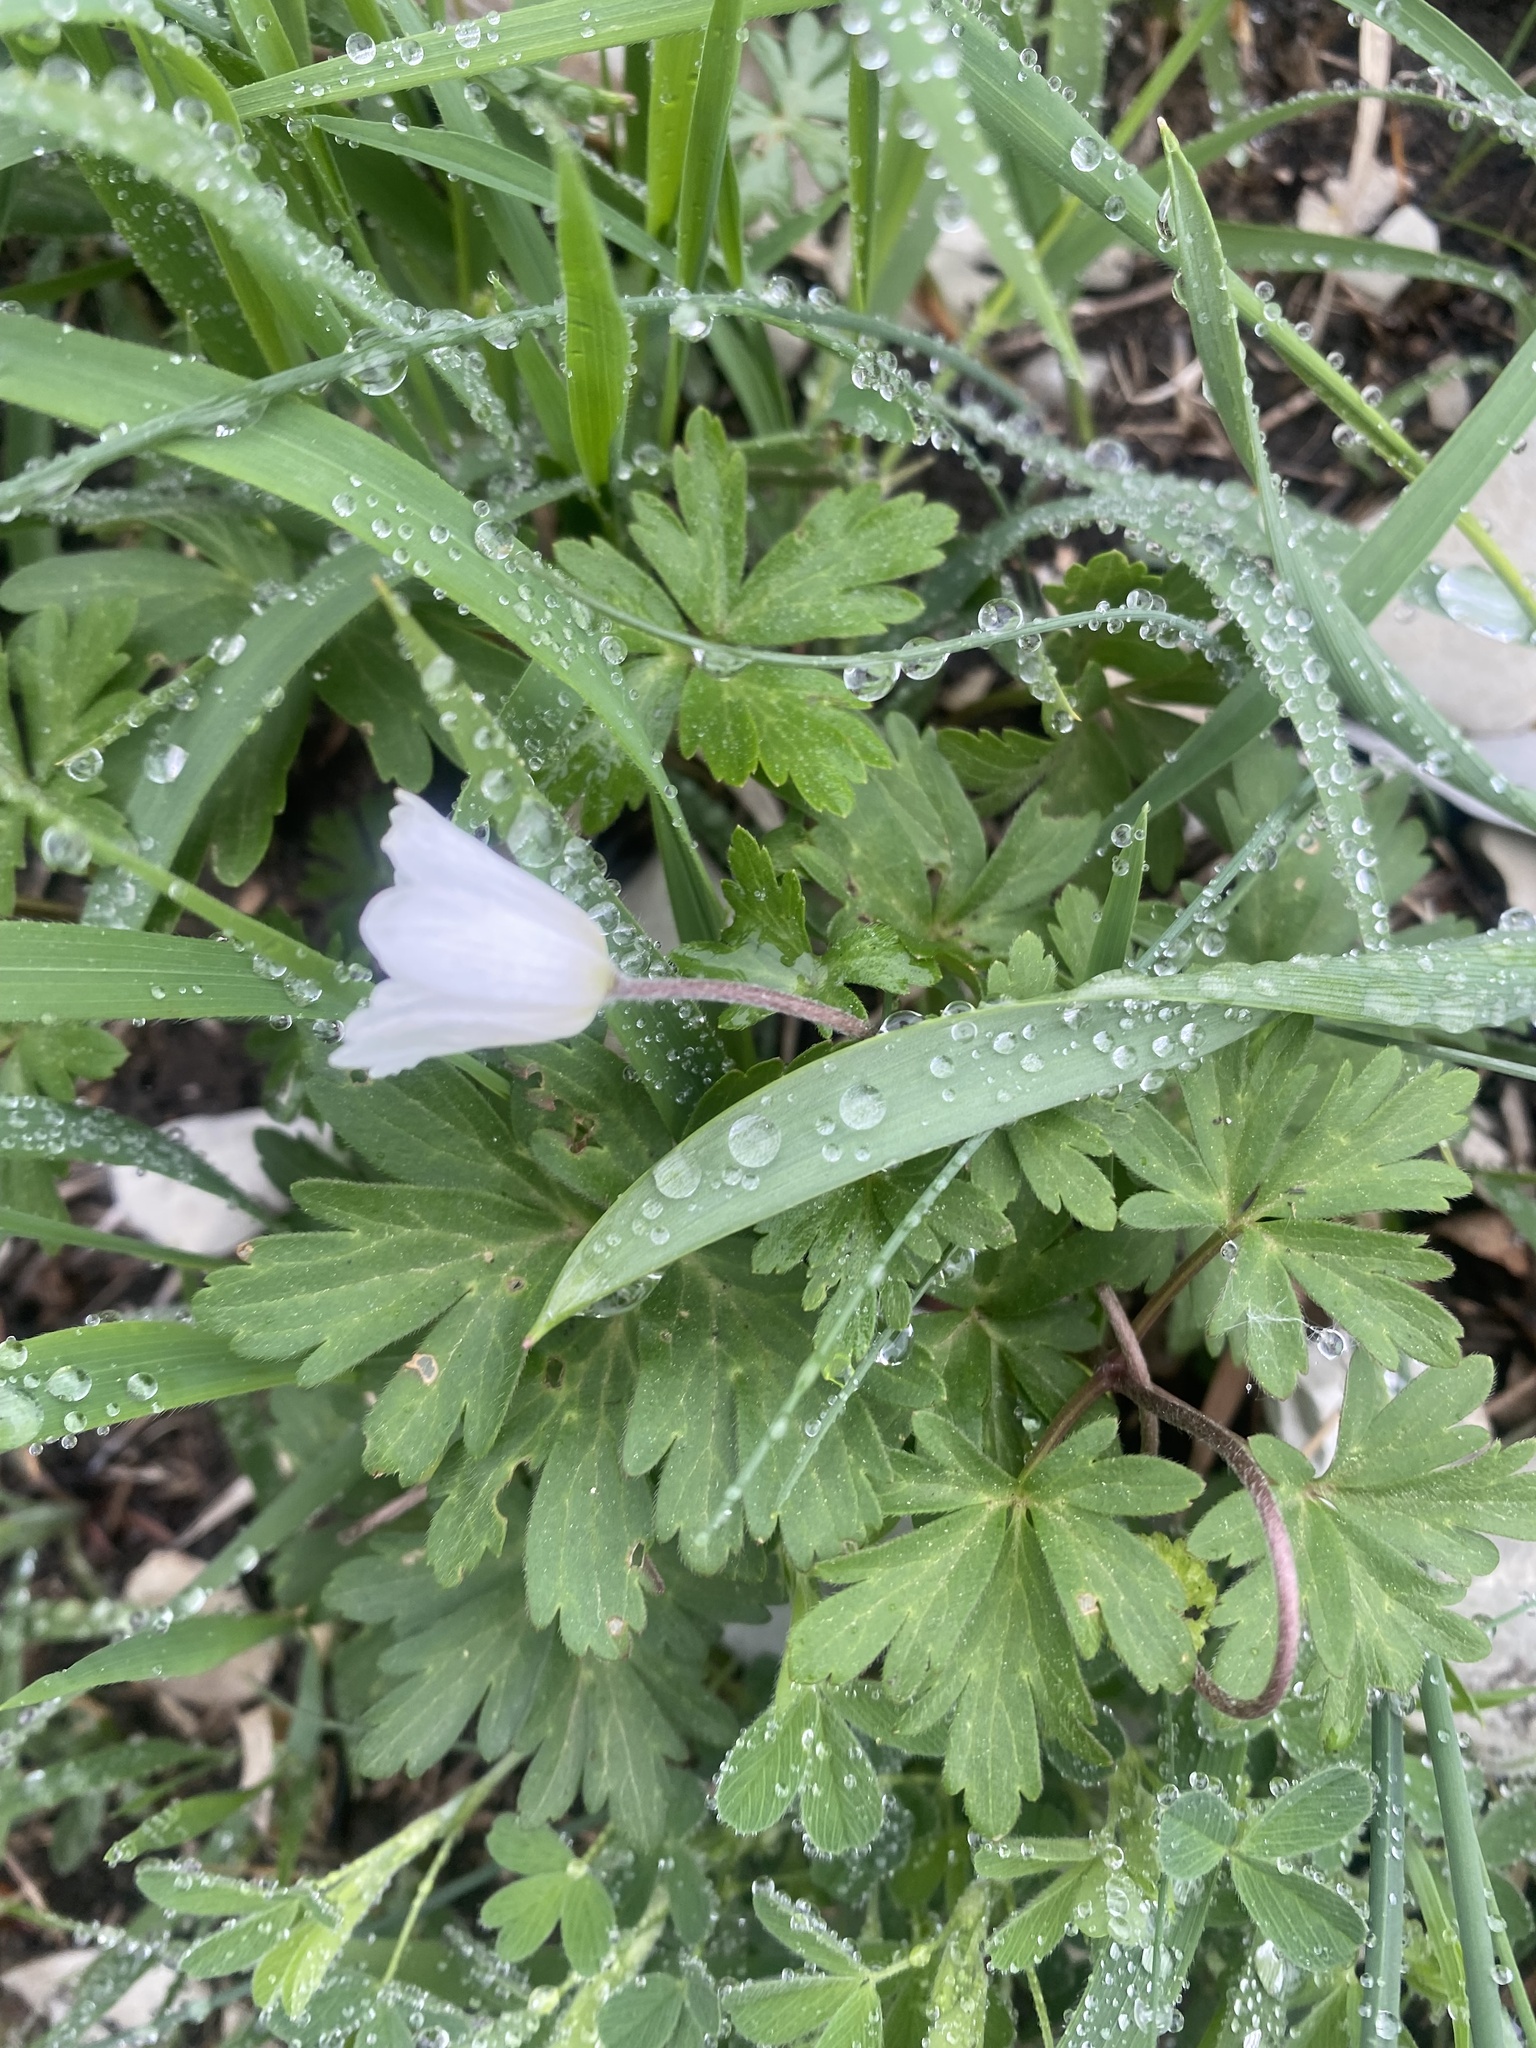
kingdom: Plantae
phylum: Tracheophyta
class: Magnoliopsida
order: Ranunculales
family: Ranunculaceae
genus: Anemone
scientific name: Anemone blanda
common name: Balkan anemone
